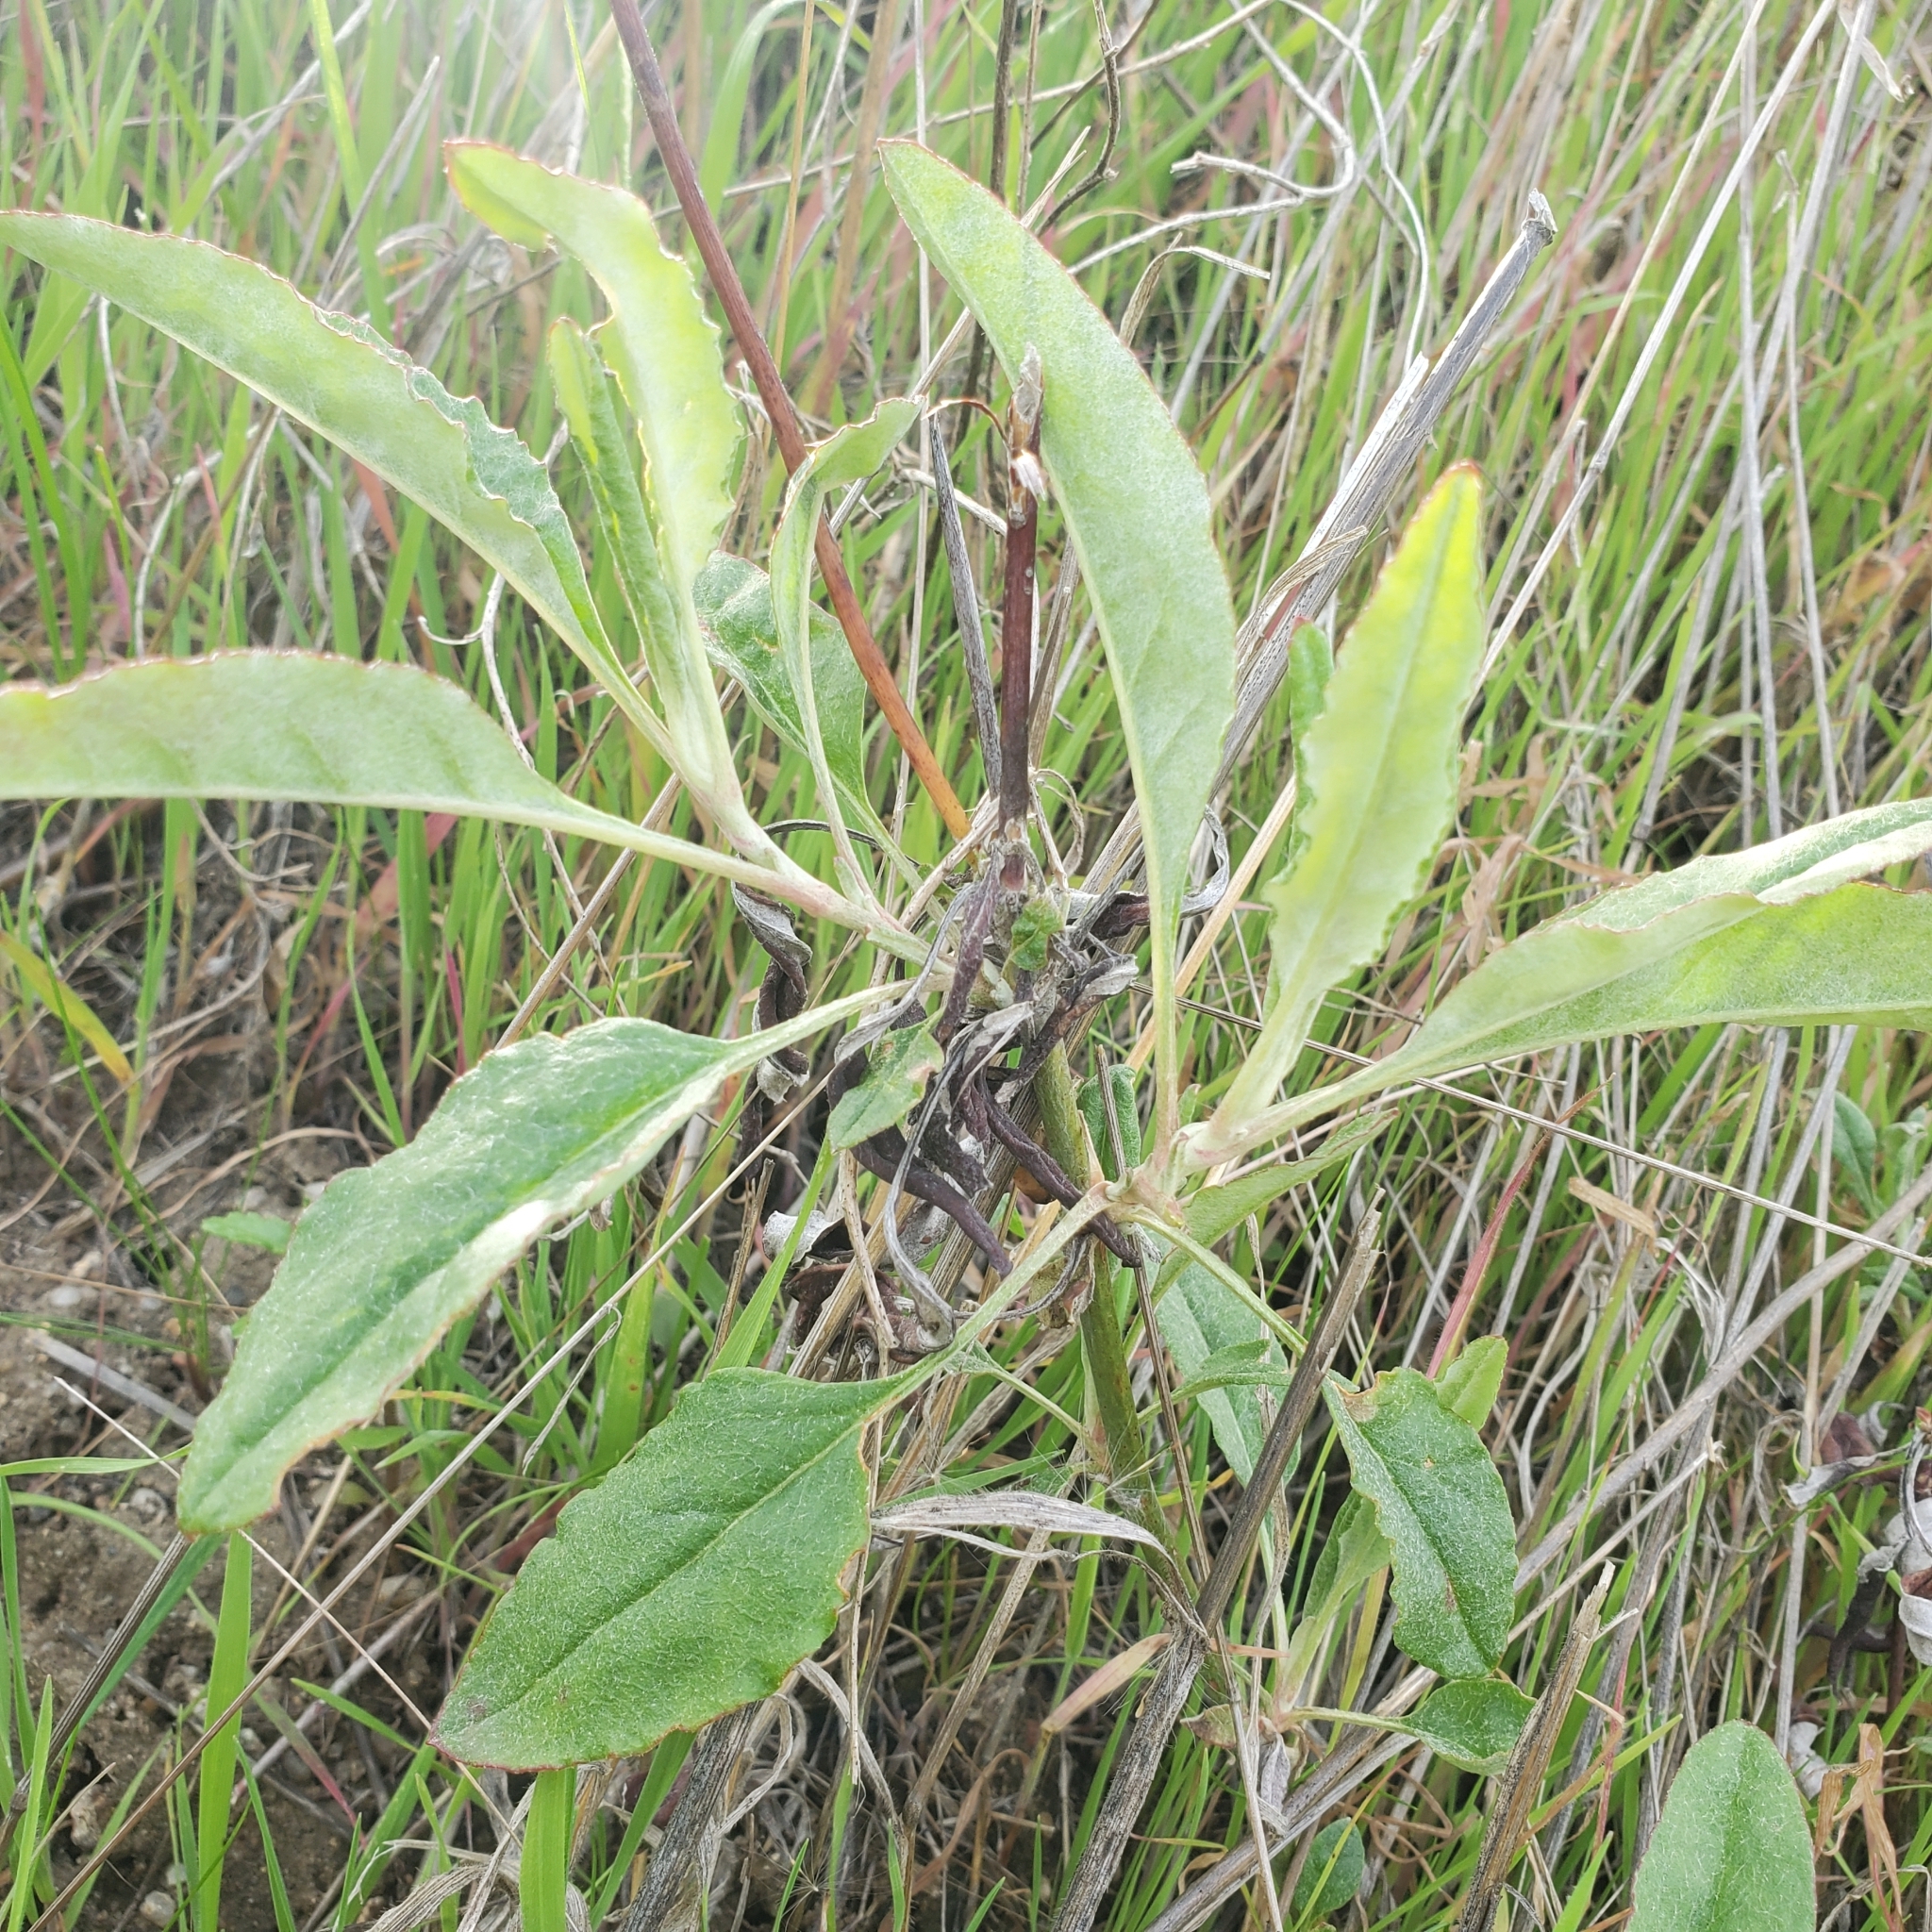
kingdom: Plantae
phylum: Tracheophyta
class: Magnoliopsida
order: Caryophyllales
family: Polygonaceae
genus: Eriogonum
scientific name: Eriogonum elongatum
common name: Long-stem wild buckwheat
